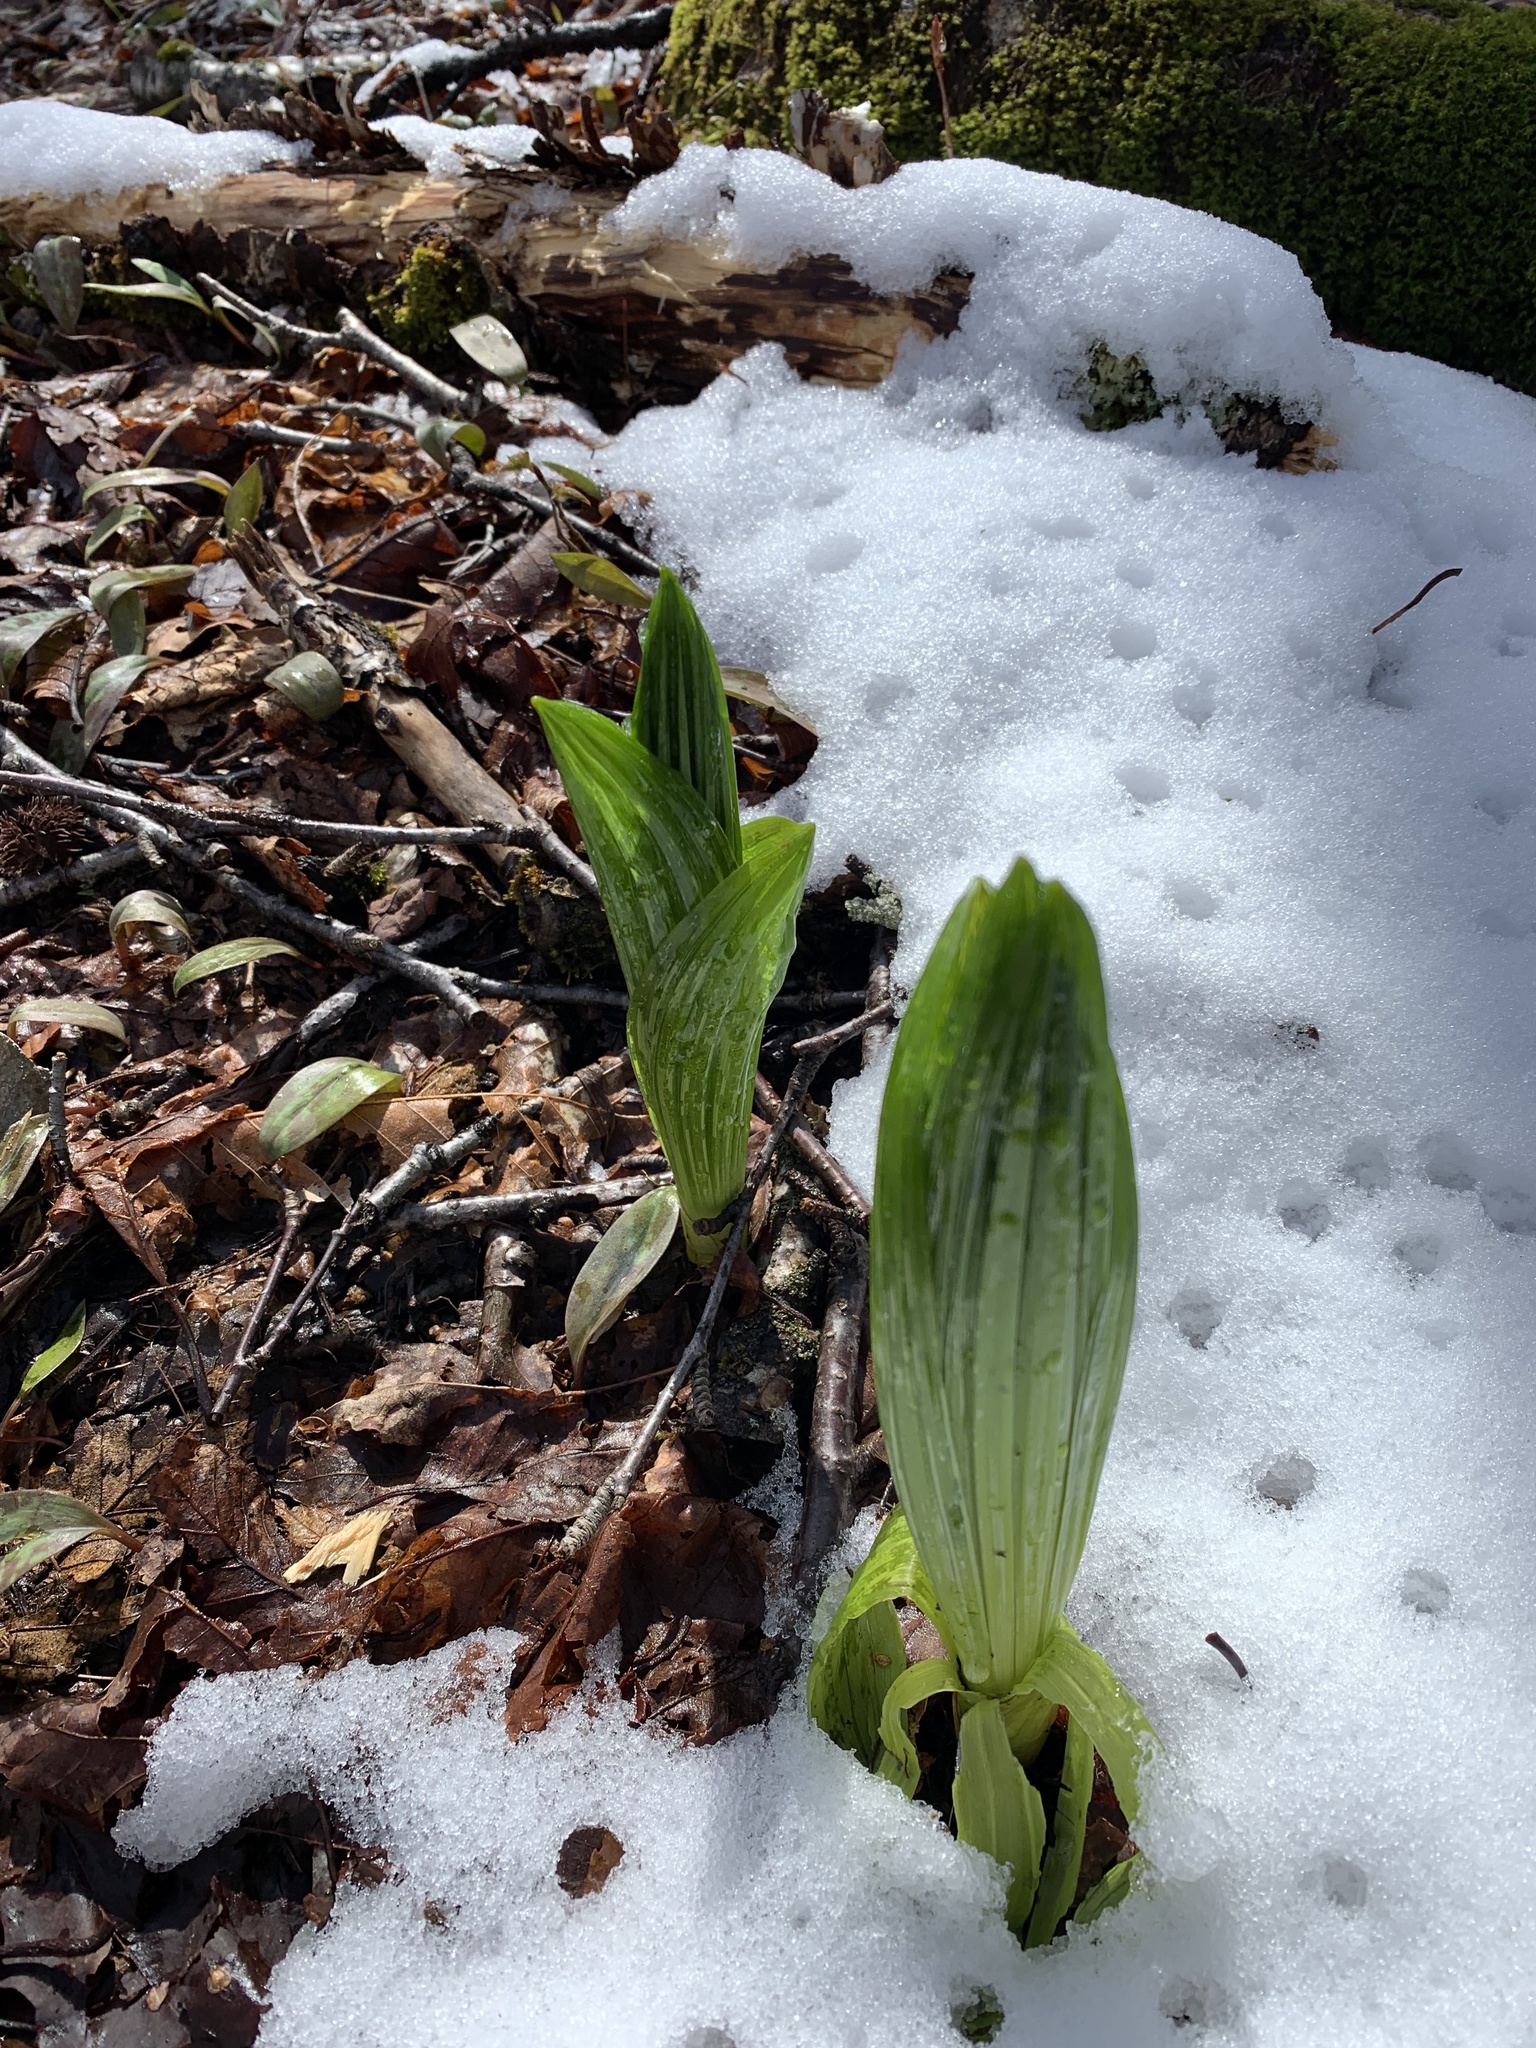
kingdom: Plantae
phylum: Tracheophyta
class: Liliopsida
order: Liliales
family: Melanthiaceae
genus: Veratrum
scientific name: Veratrum viride
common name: American false hellebore
